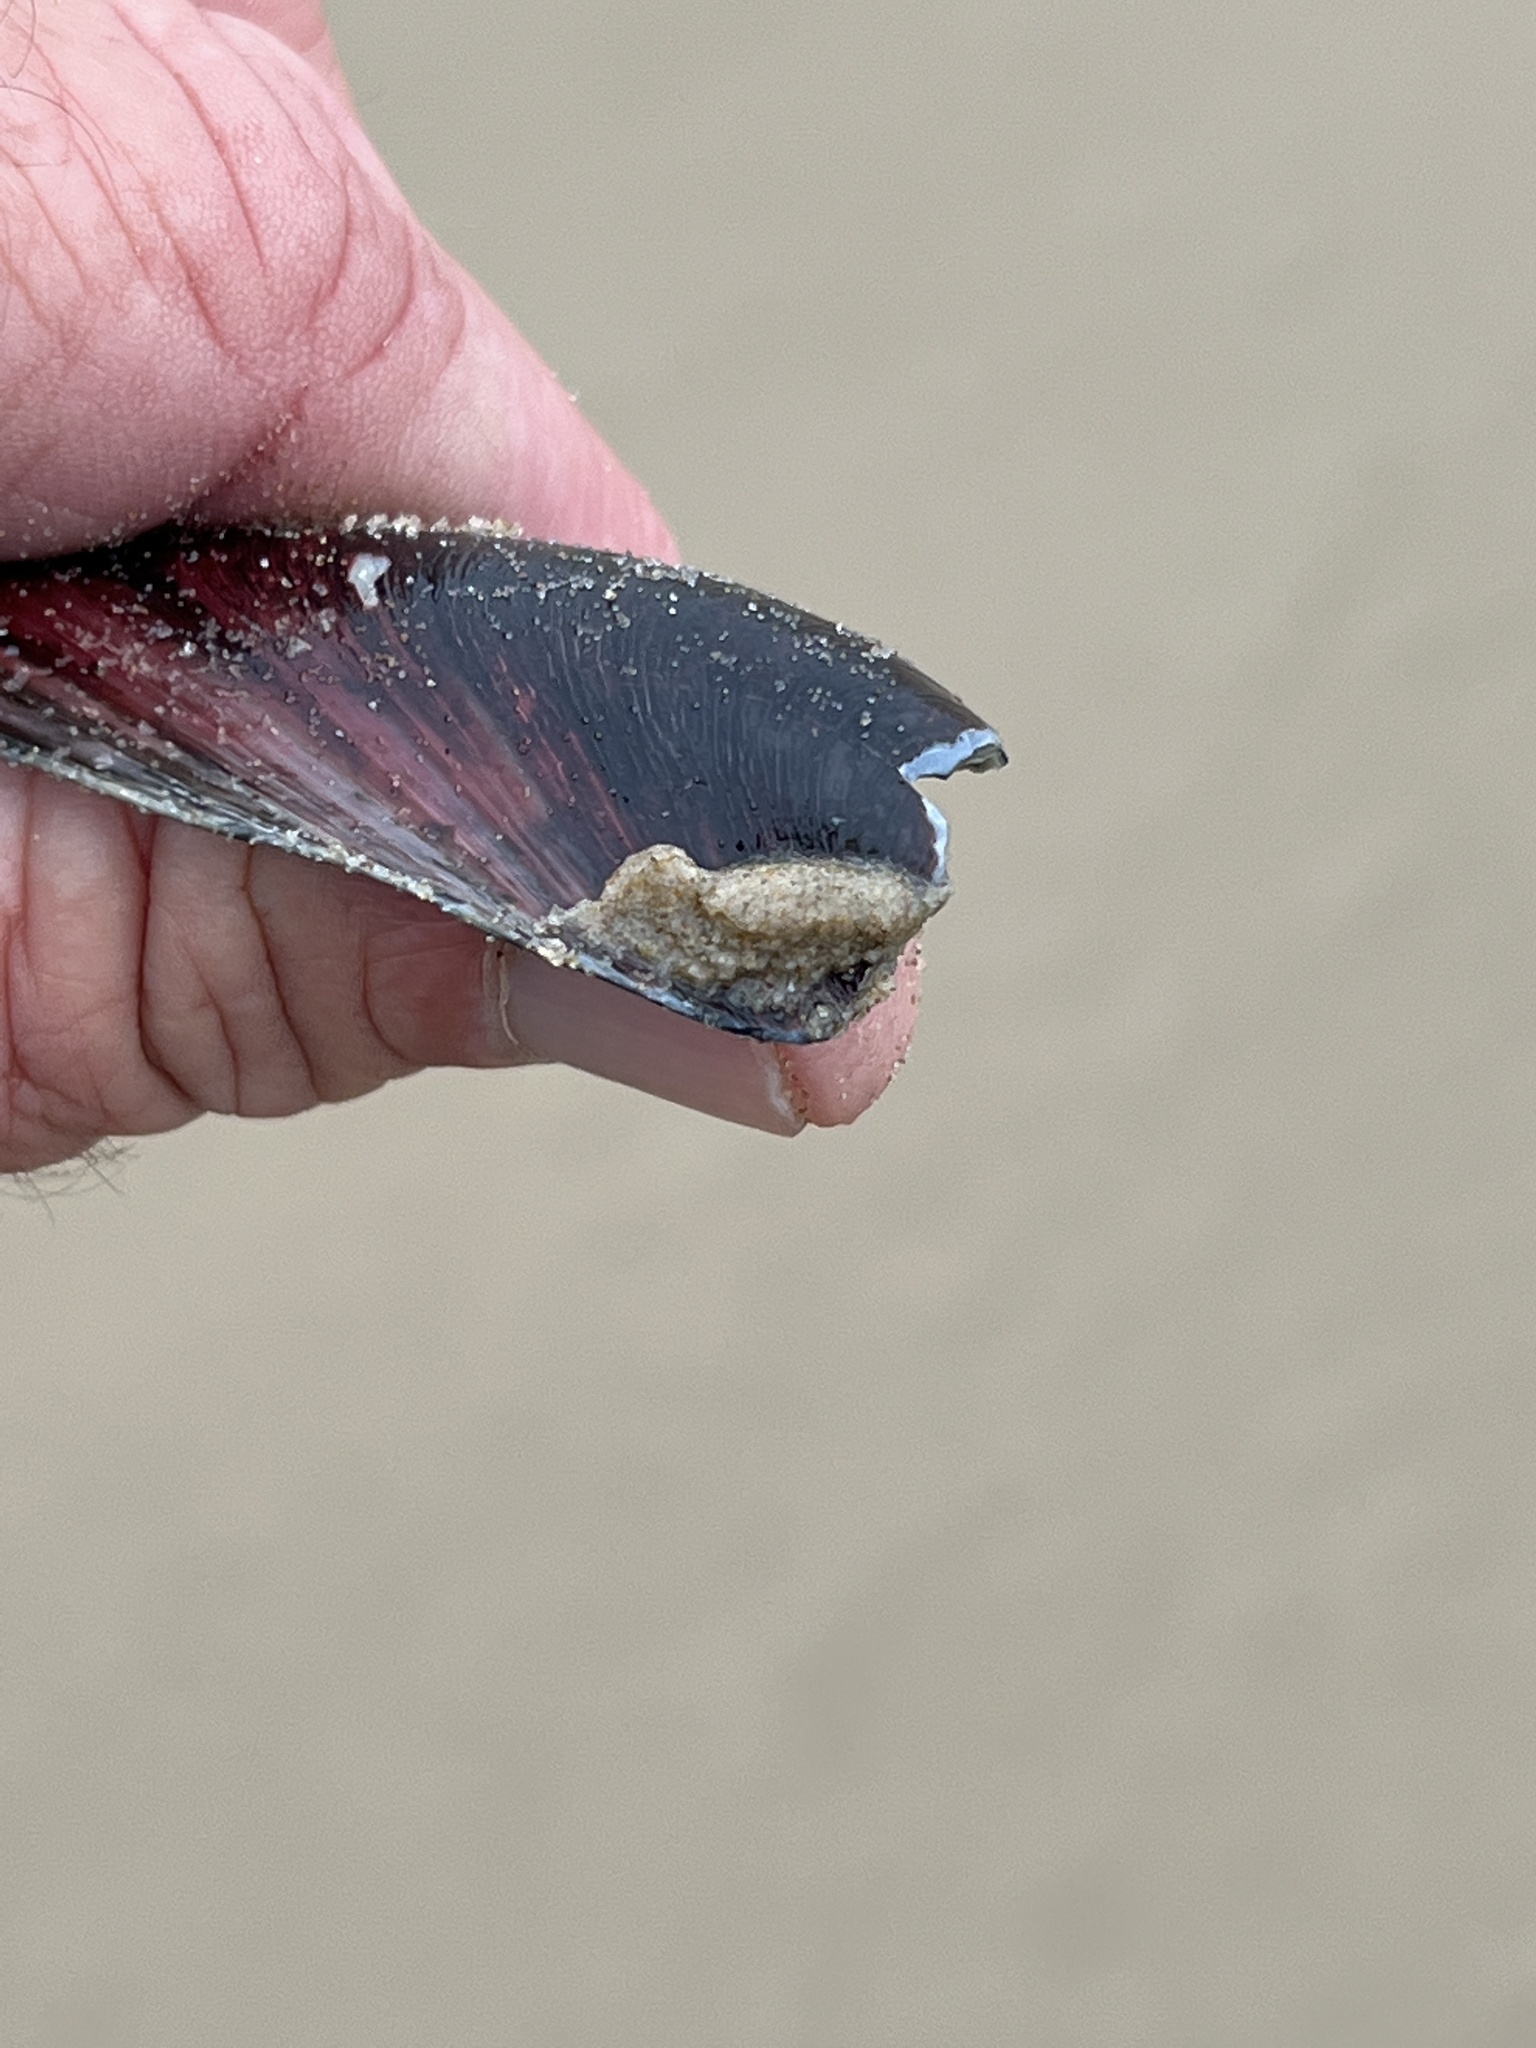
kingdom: Animalia
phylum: Mollusca
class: Bivalvia
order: Mytilida
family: Mytilidae
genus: Modiolus
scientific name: Modiolus americanus
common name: Tulip mussel
